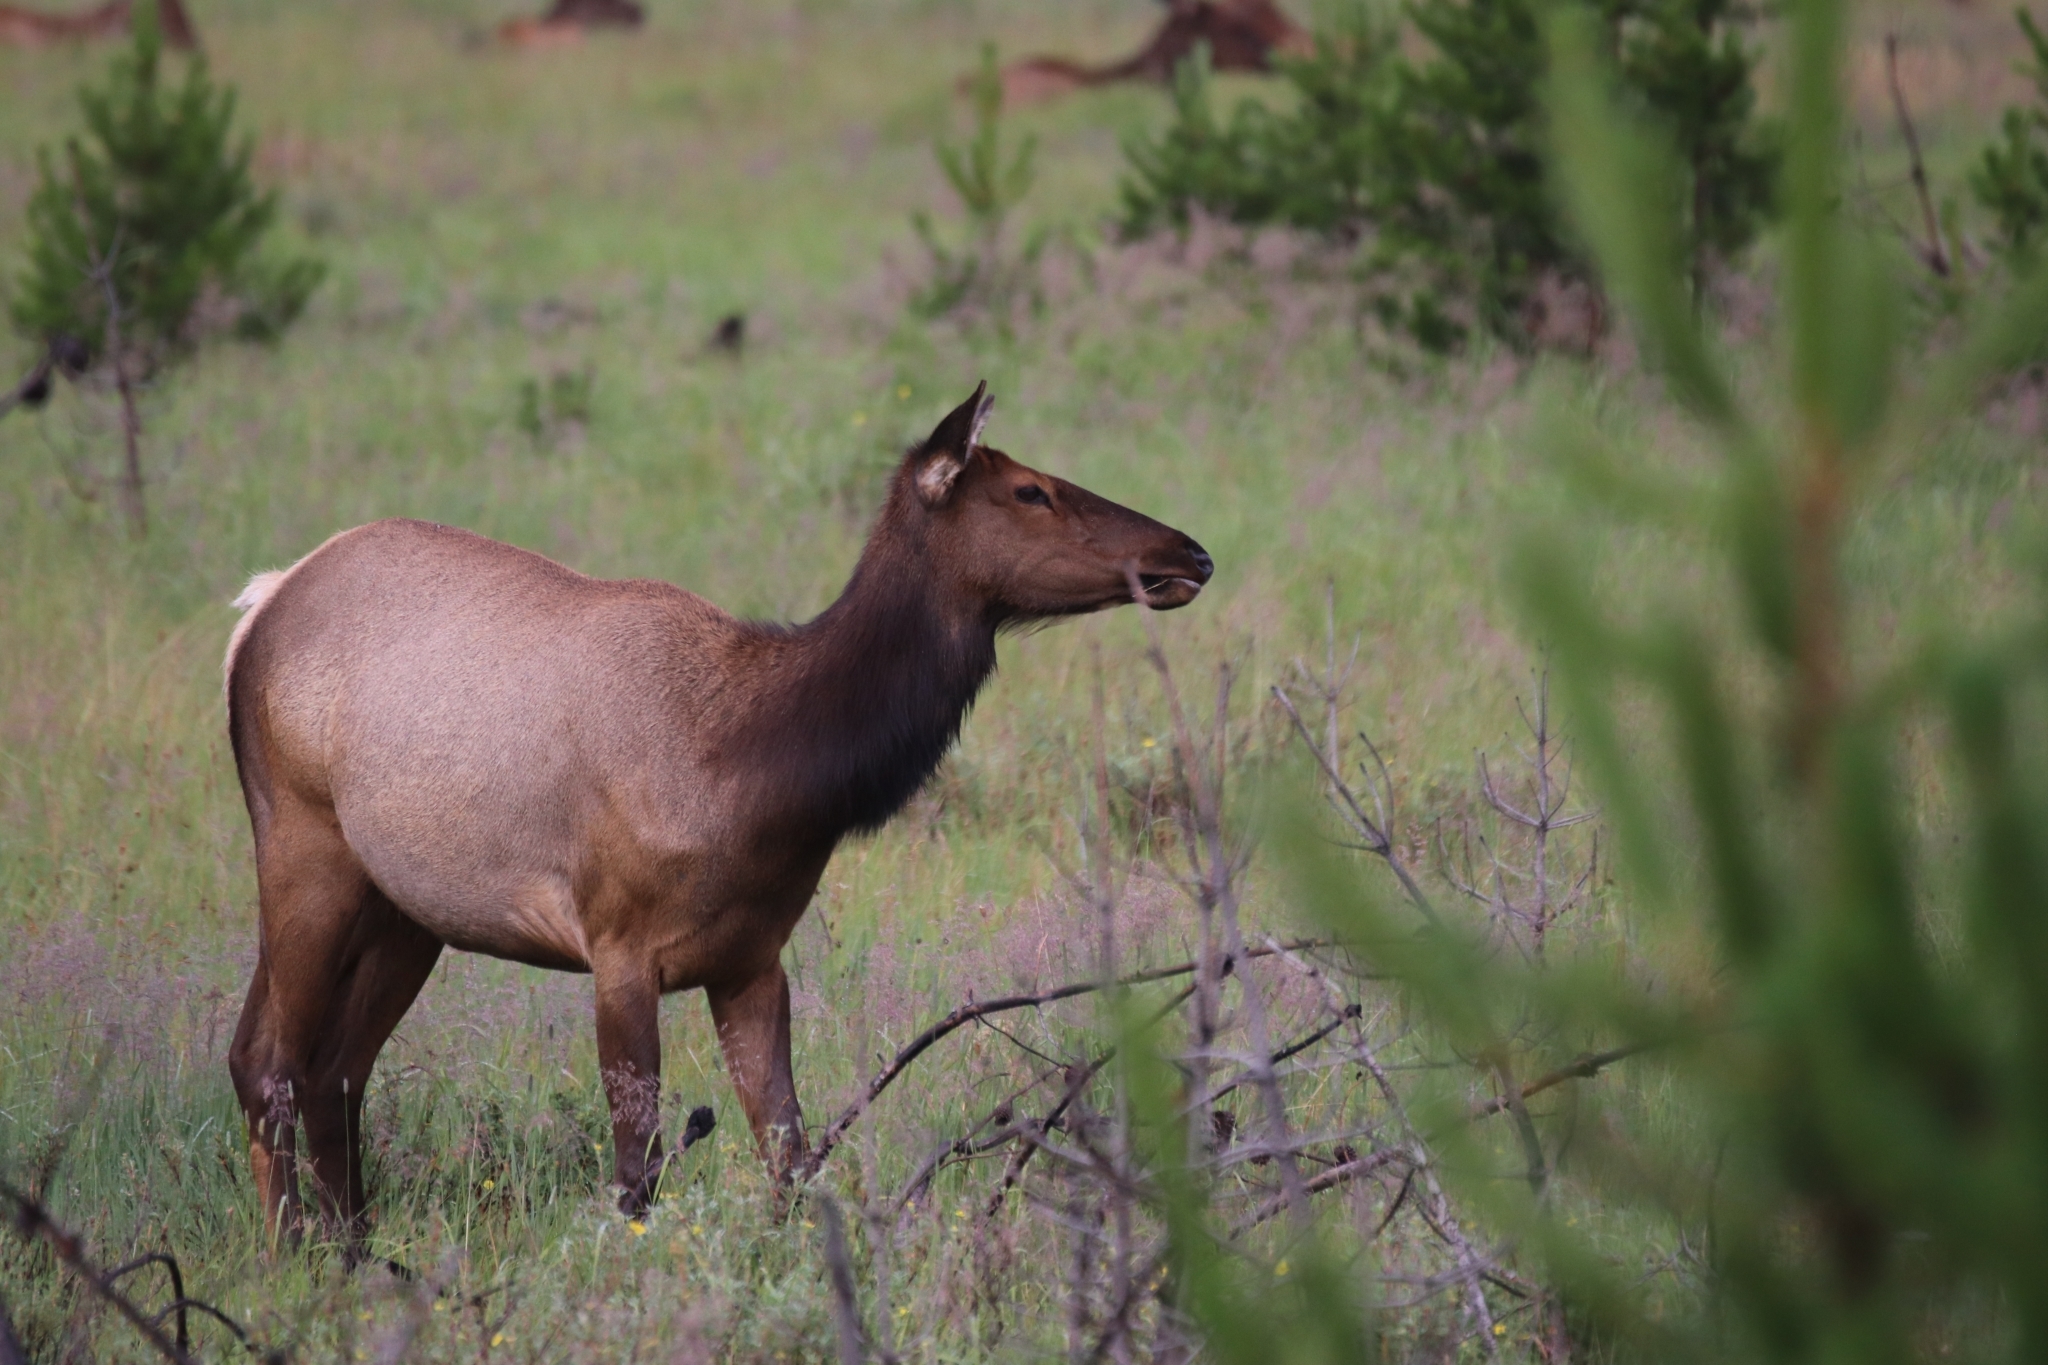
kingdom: Animalia
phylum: Chordata
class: Mammalia
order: Artiodactyla
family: Cervidae
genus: Cervus
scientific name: Cervus elaphus
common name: Red deer
